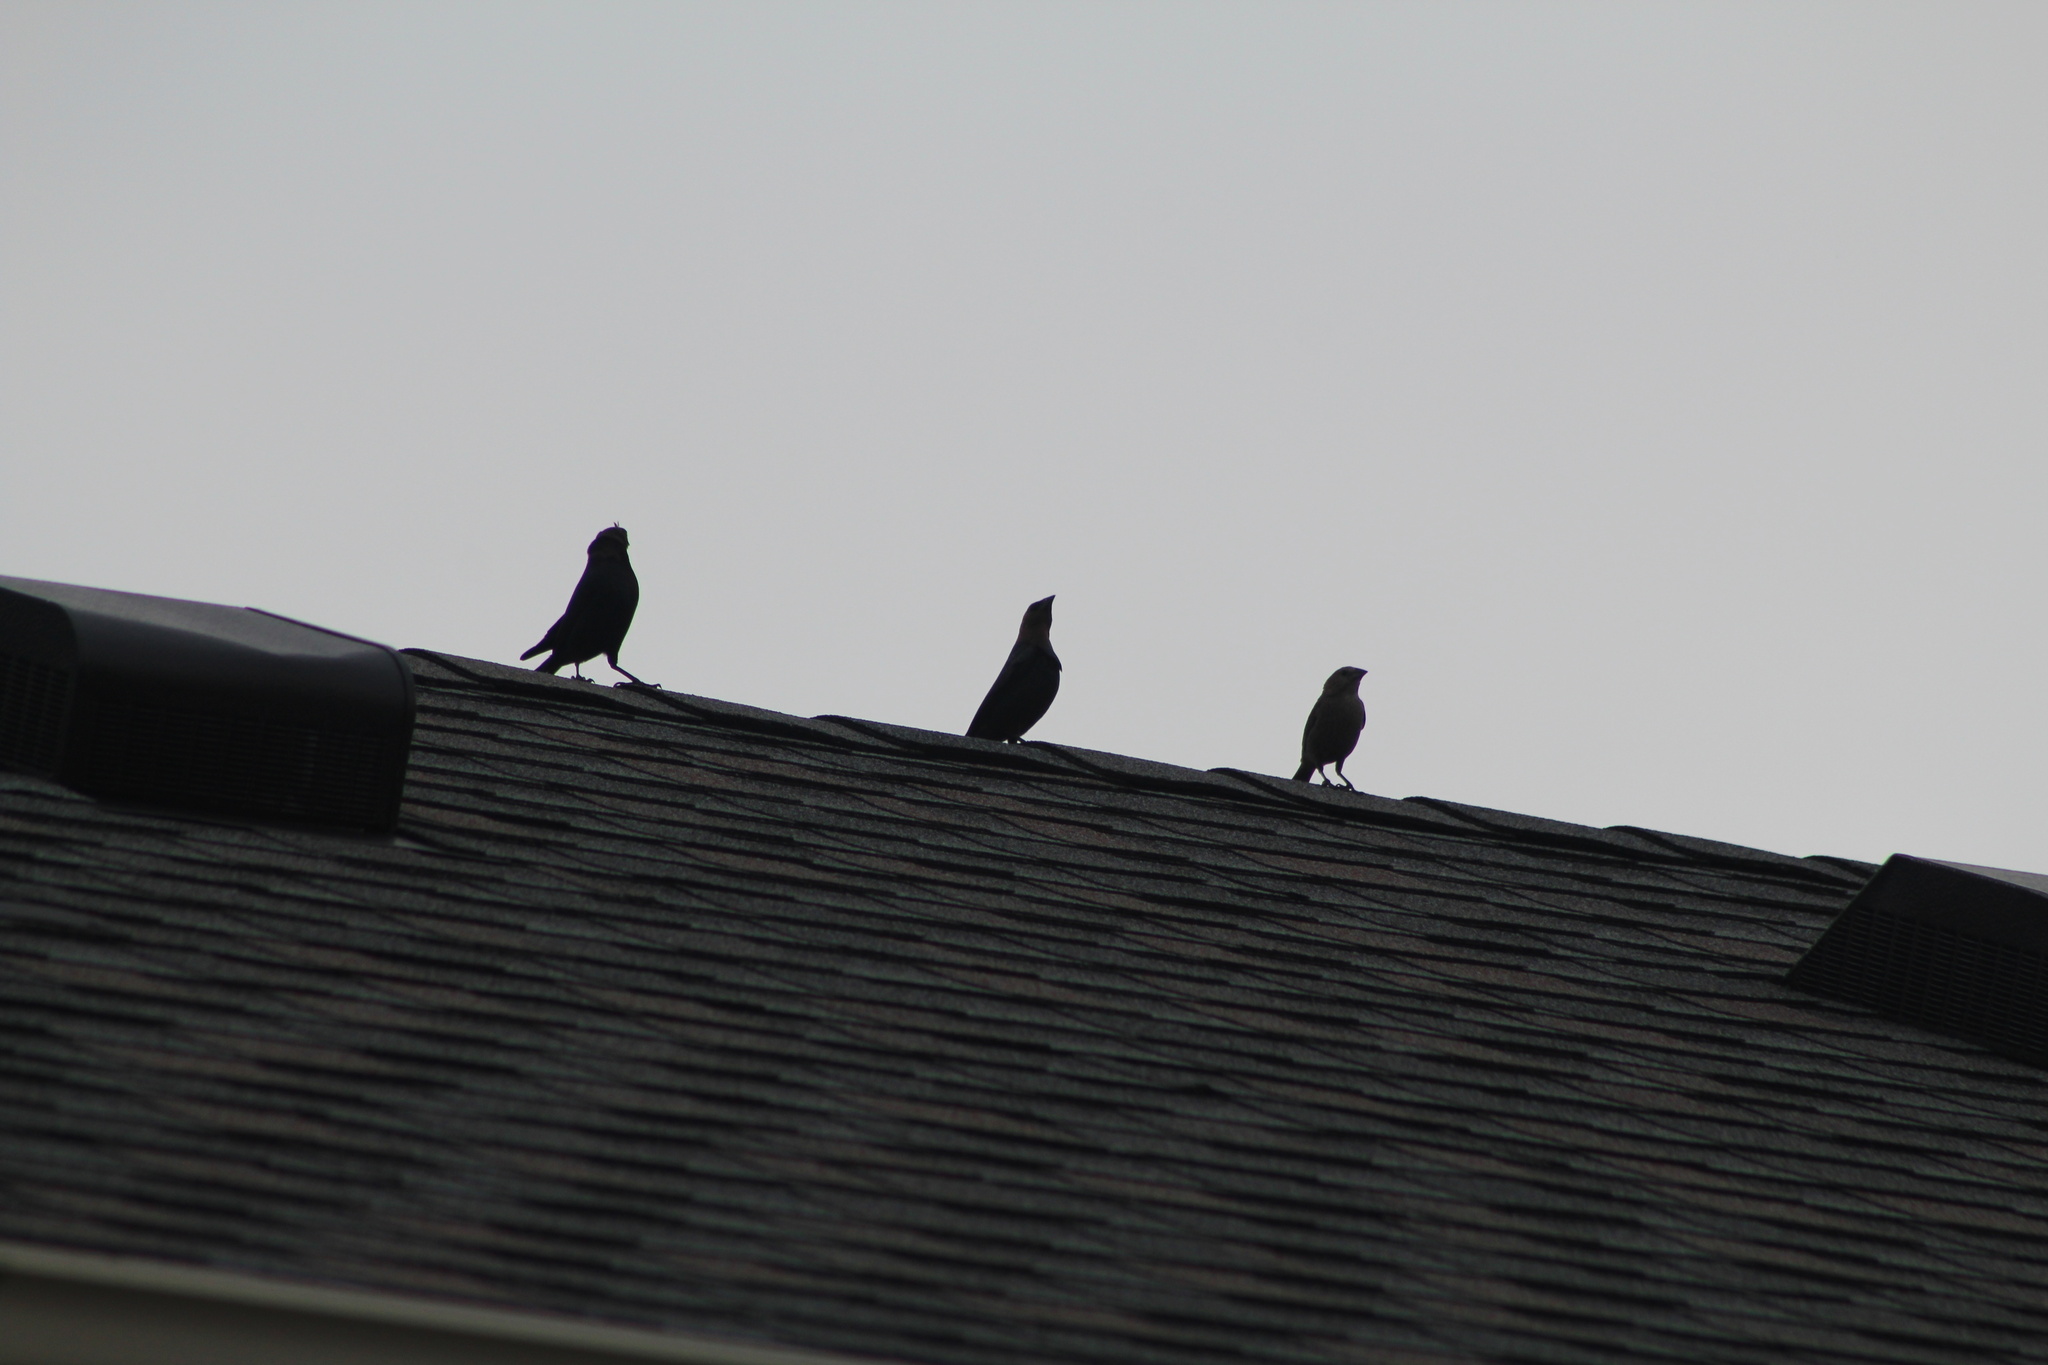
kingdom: Animalia
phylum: Chordata
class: Aves
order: Passeriformes
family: Icteridae
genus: Molothrus
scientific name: Molothrus ater
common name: Brown-headed cowbird
